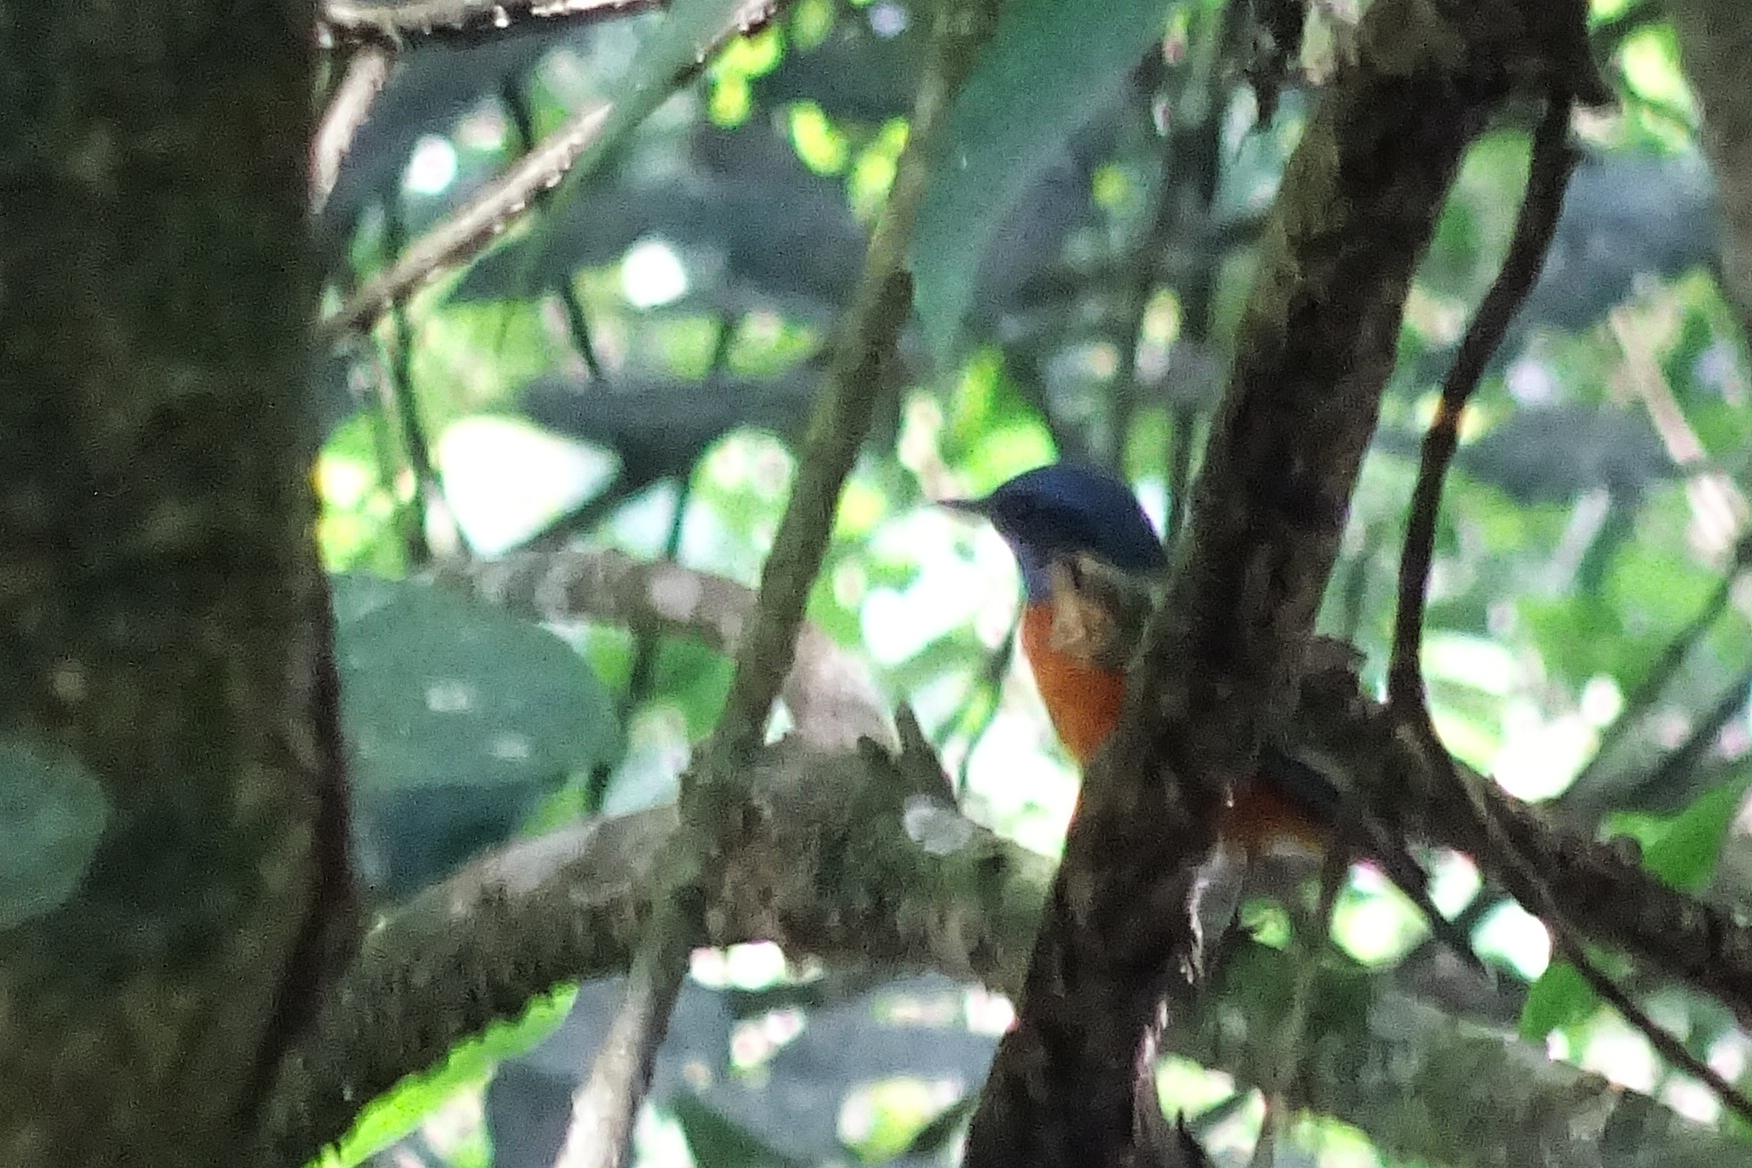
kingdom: Animalia
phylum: Chordata
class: Aves
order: Passeriformes
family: Muscicapidae
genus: Monticola
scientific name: Monticola cinclorhynchus
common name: Blue-capped rock thrush
